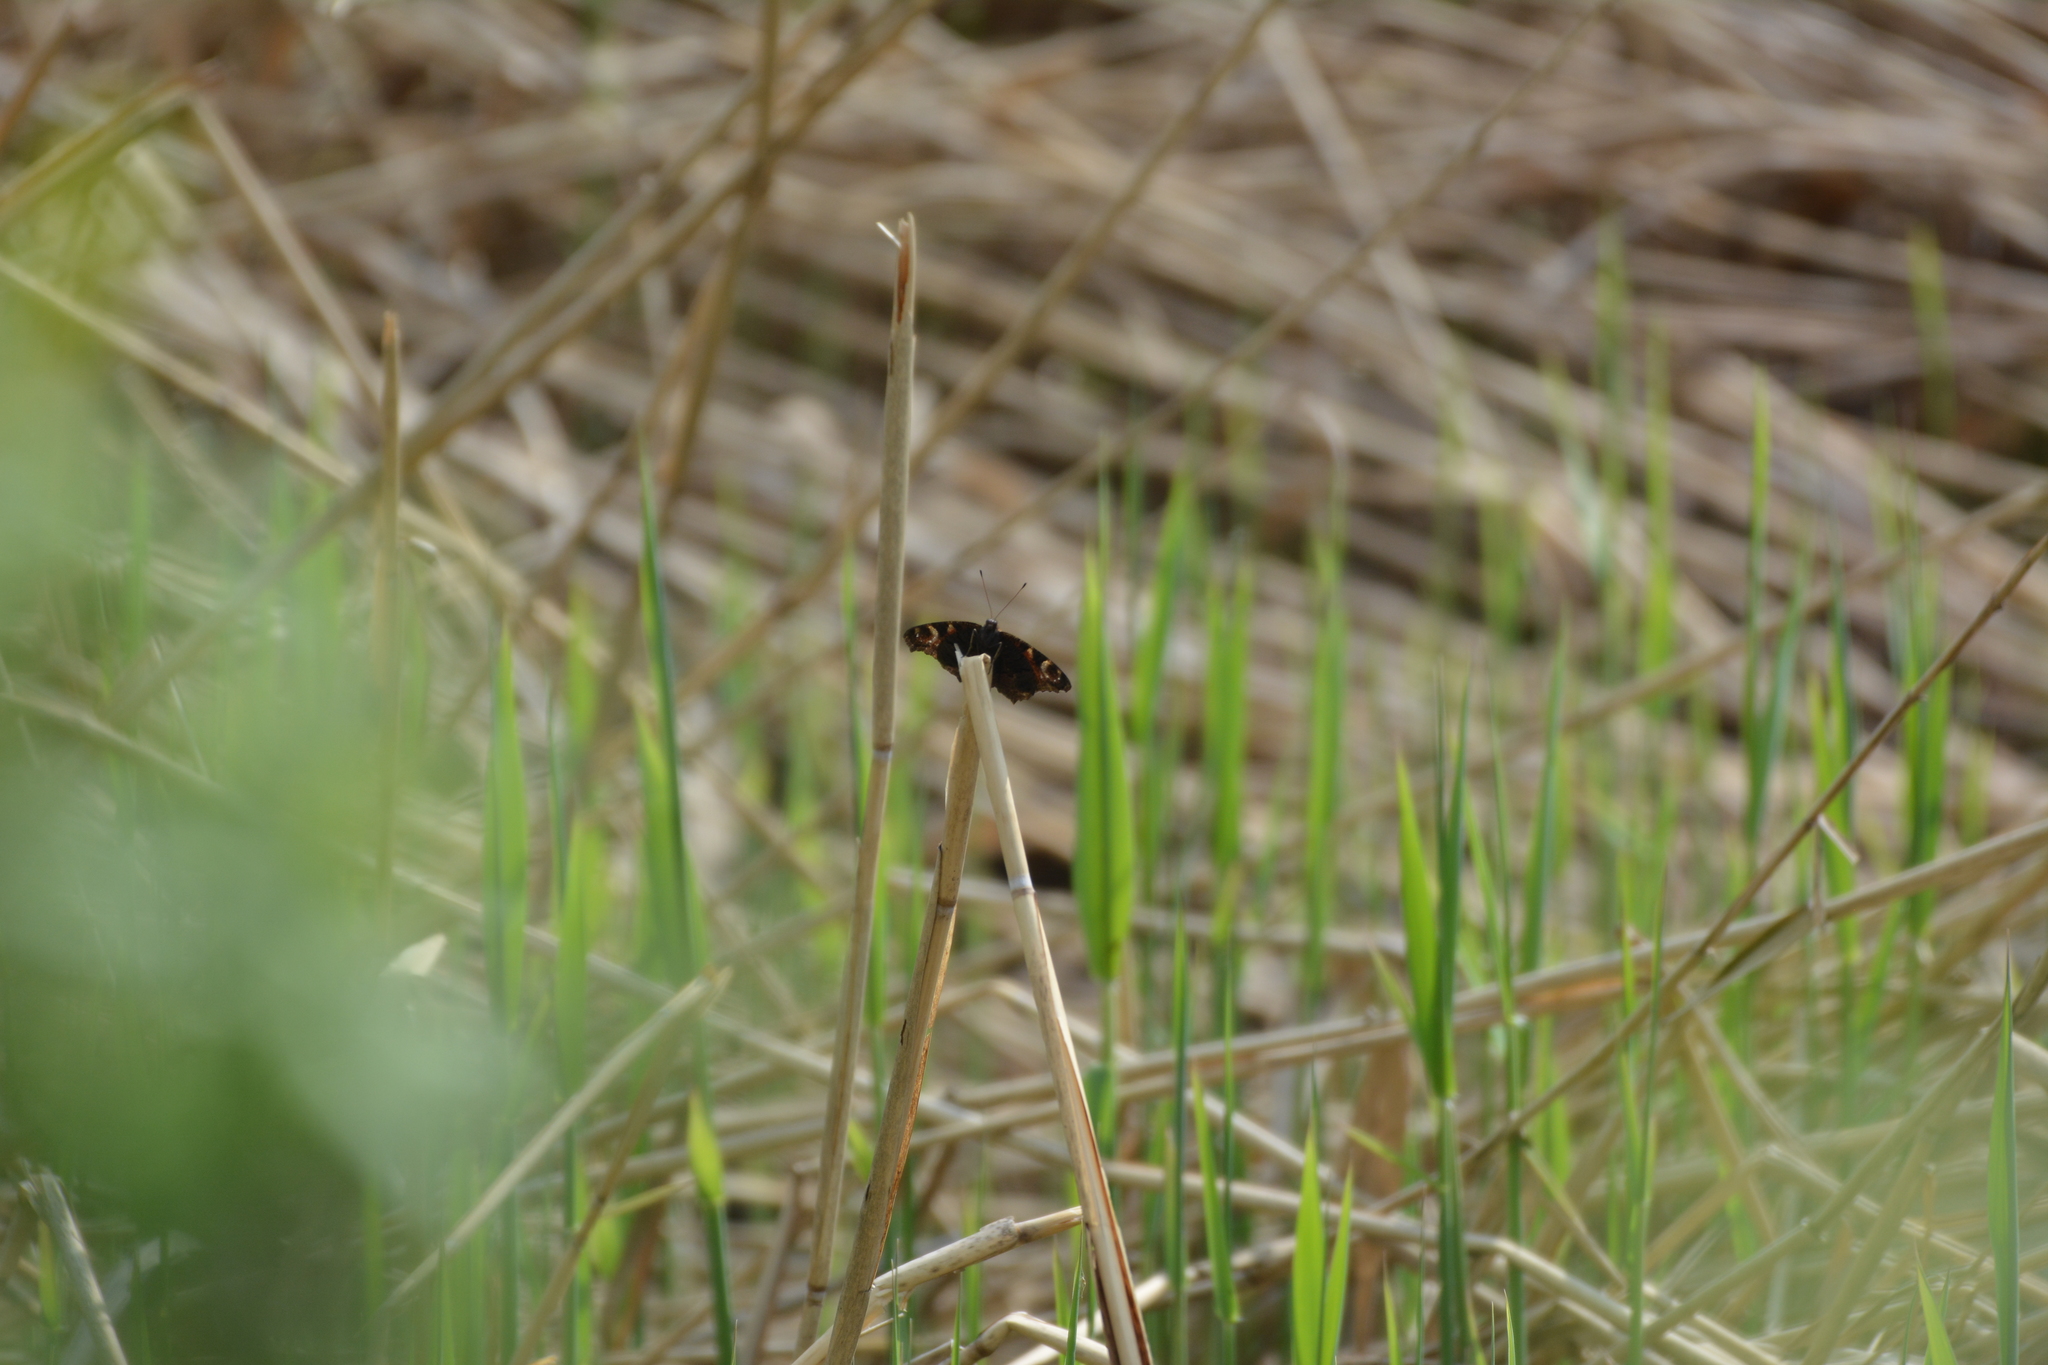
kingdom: Animalia
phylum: Arthropoda
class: Insecta
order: Lepidoptera
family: Nymphalidae
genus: Aglais
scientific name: Aglais io
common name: Peacock
